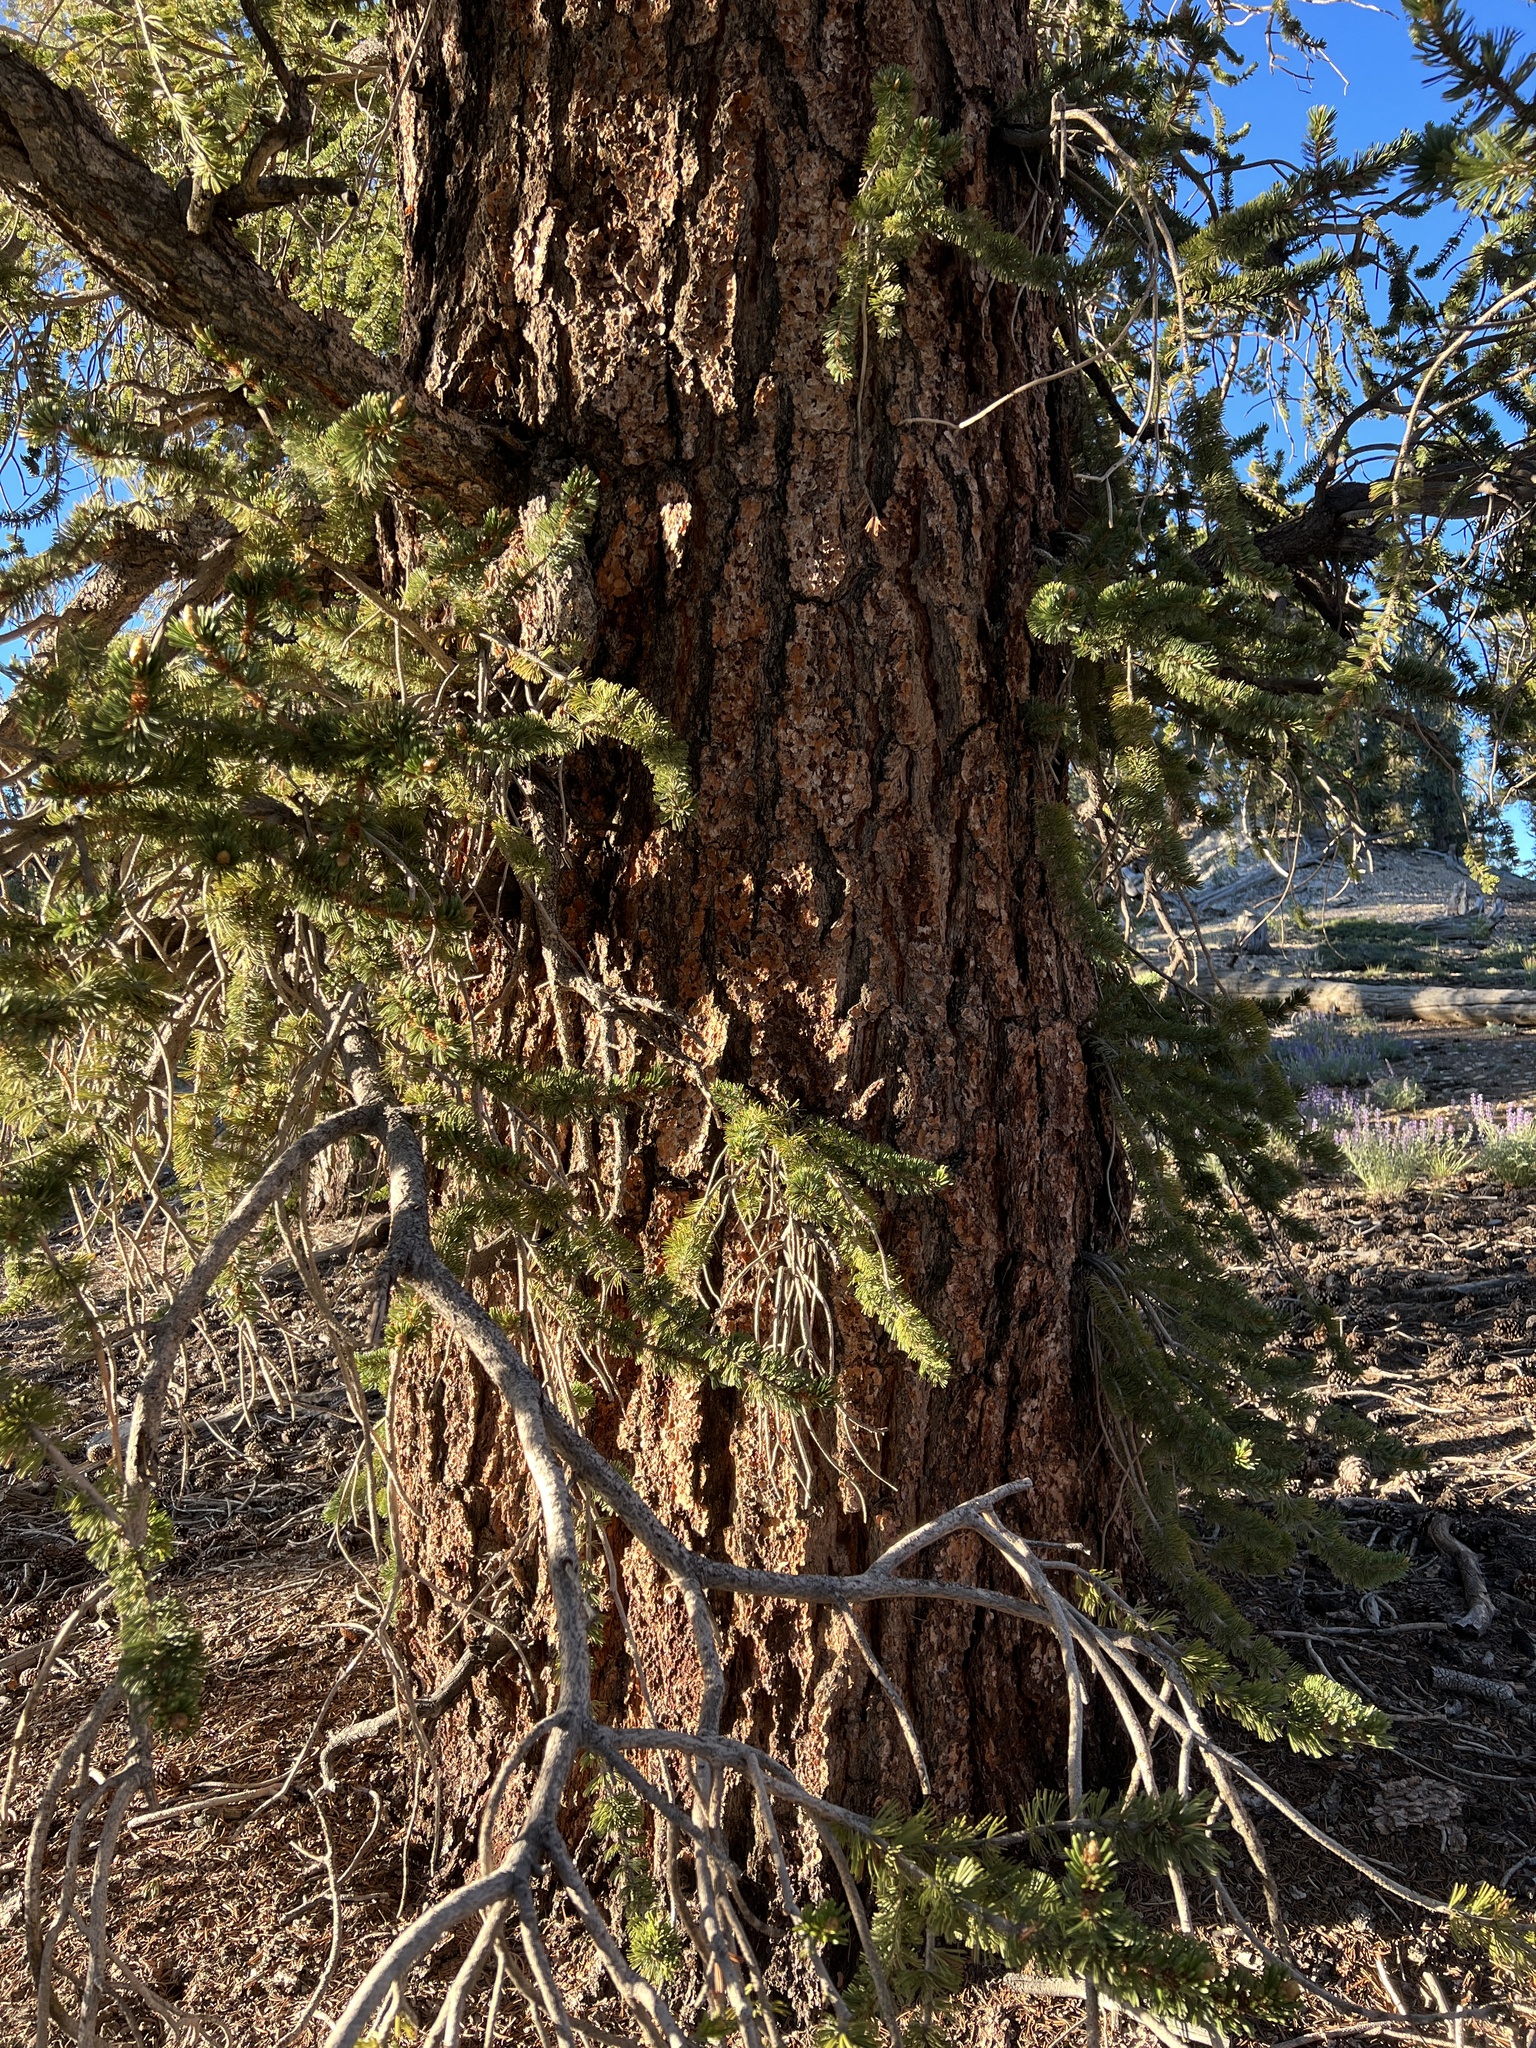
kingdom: Plantae
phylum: Tracheophyta
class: Pinopsida
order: Pinales
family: Pinaceae
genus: Pinus
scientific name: Pinus longaeva
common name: Intermountain bristlecone pine
